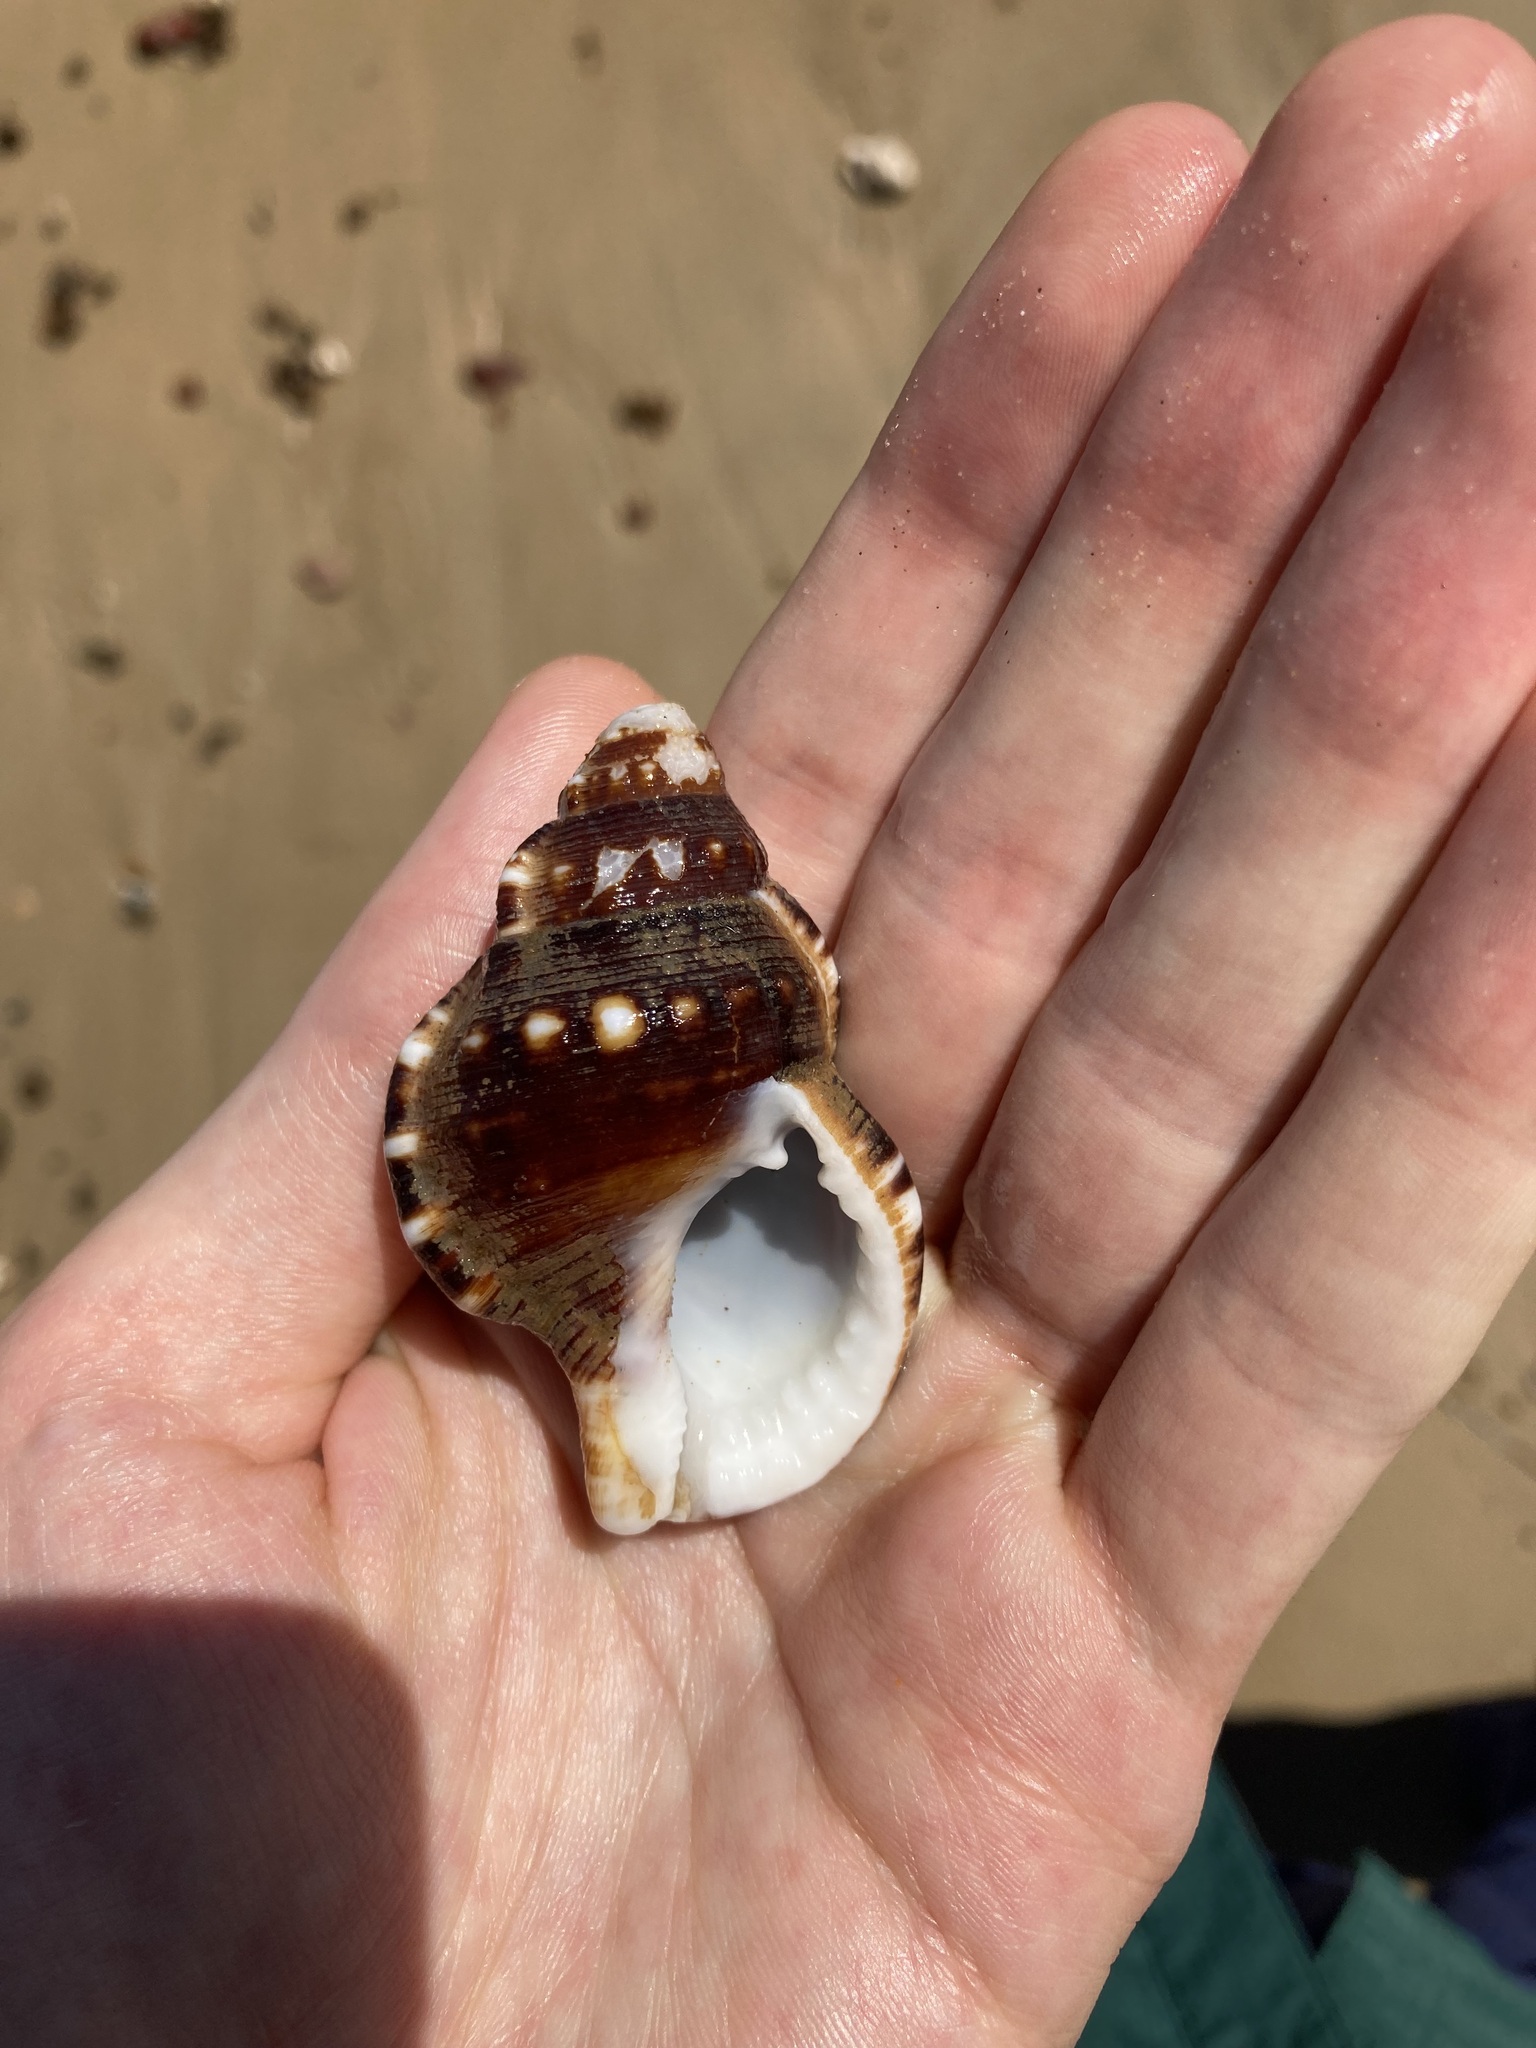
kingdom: Animalia
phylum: Mollusca
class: Gastropoda
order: Littorinimorpha
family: Ranellidae
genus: Ranella
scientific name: Ranella australasia
